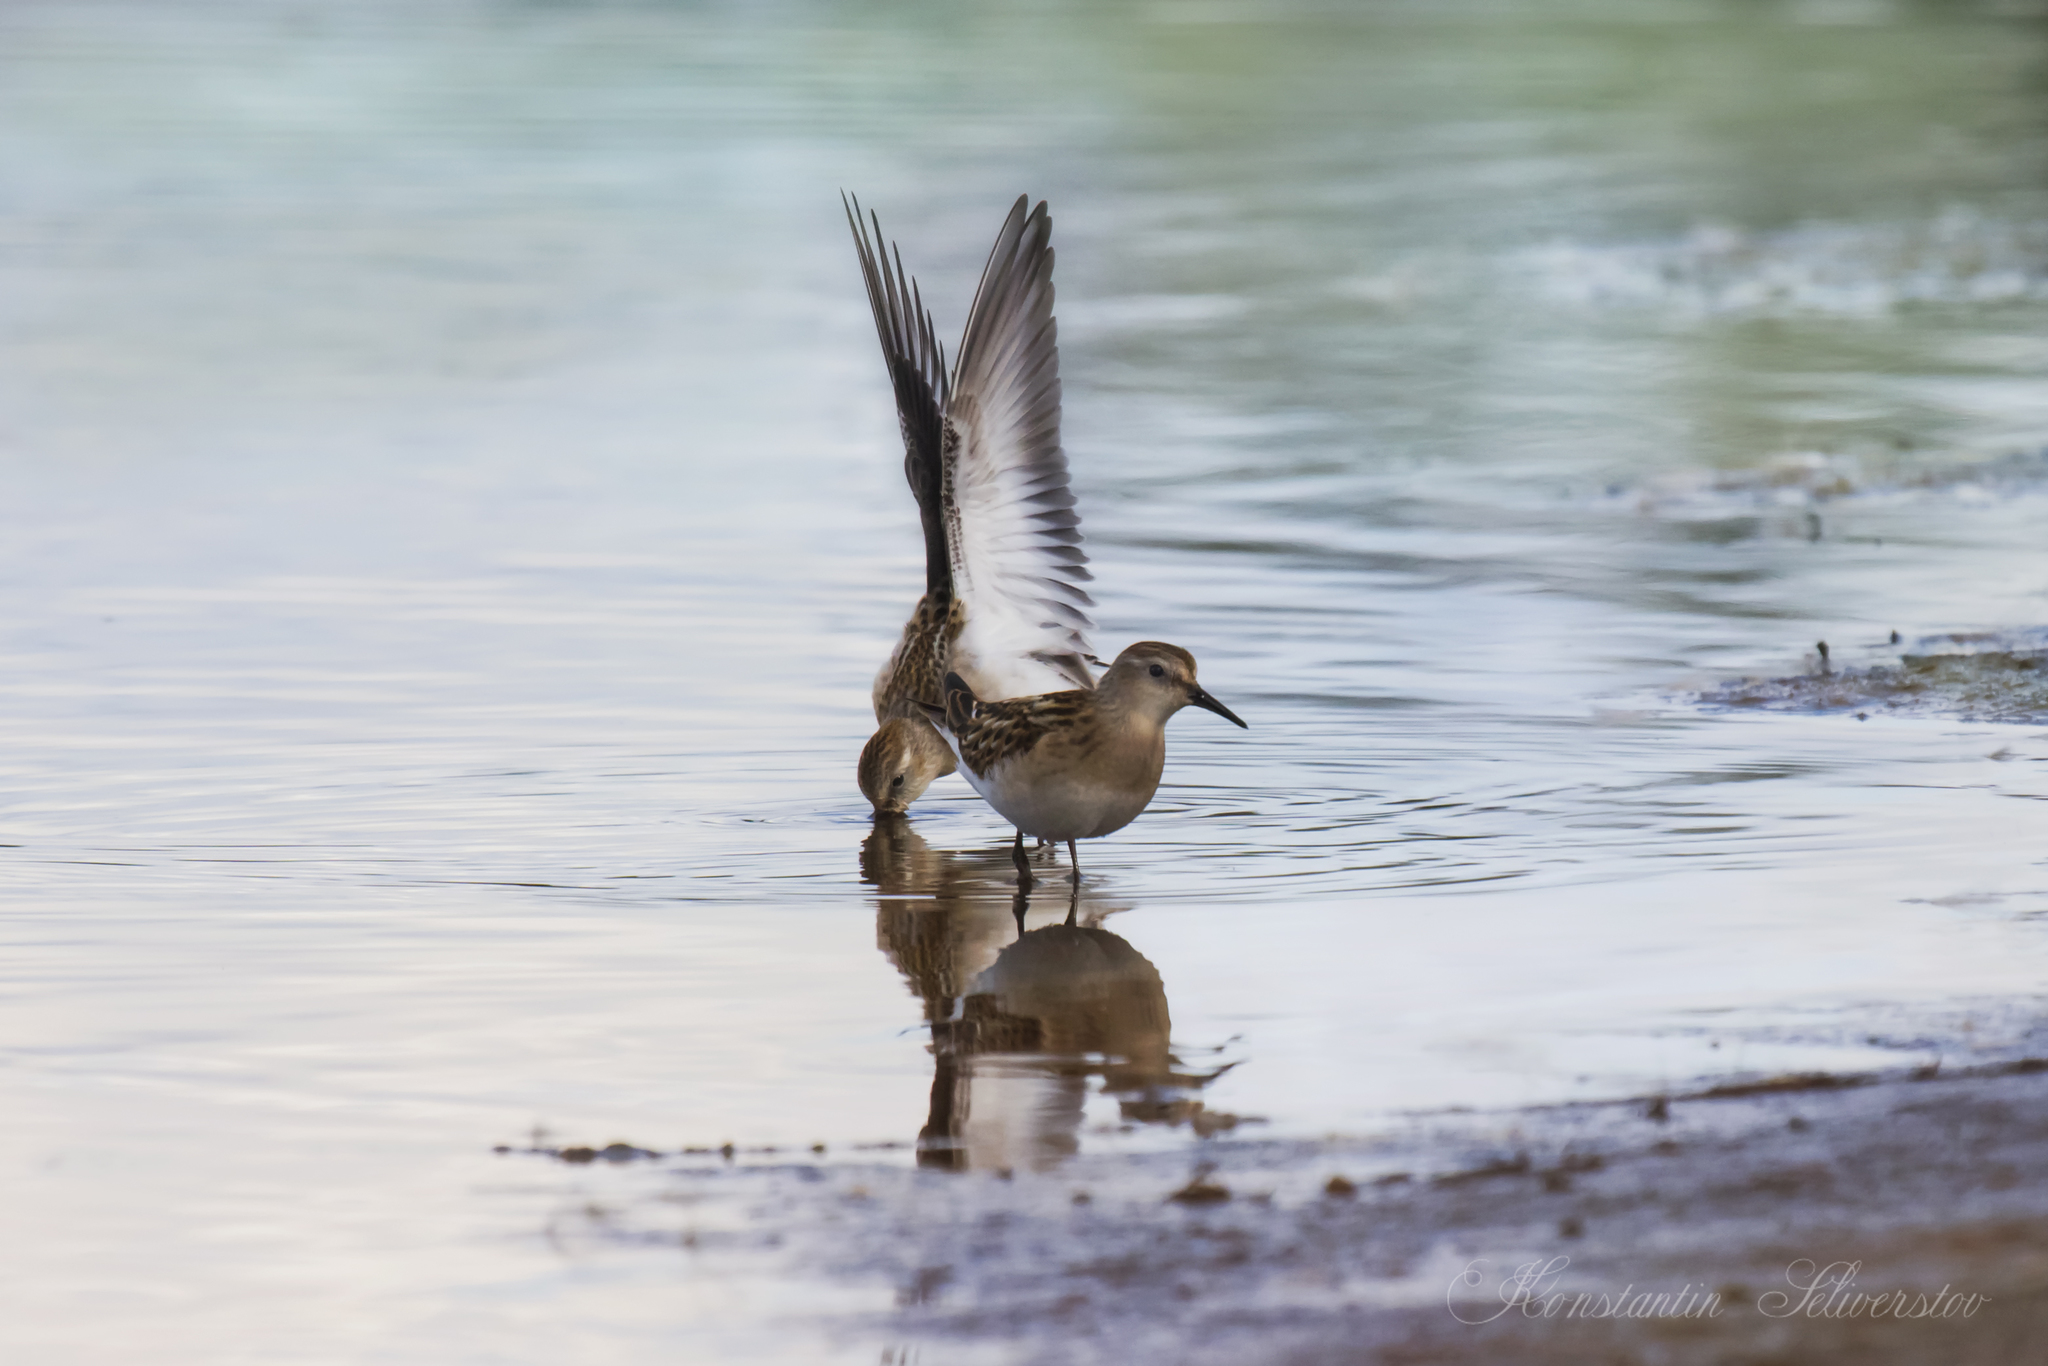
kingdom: Animalia
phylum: Chordata
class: Aves
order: Charadriiformes
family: Scolopacidae
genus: Calidris
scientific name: Calidris minuta
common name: Little stint
